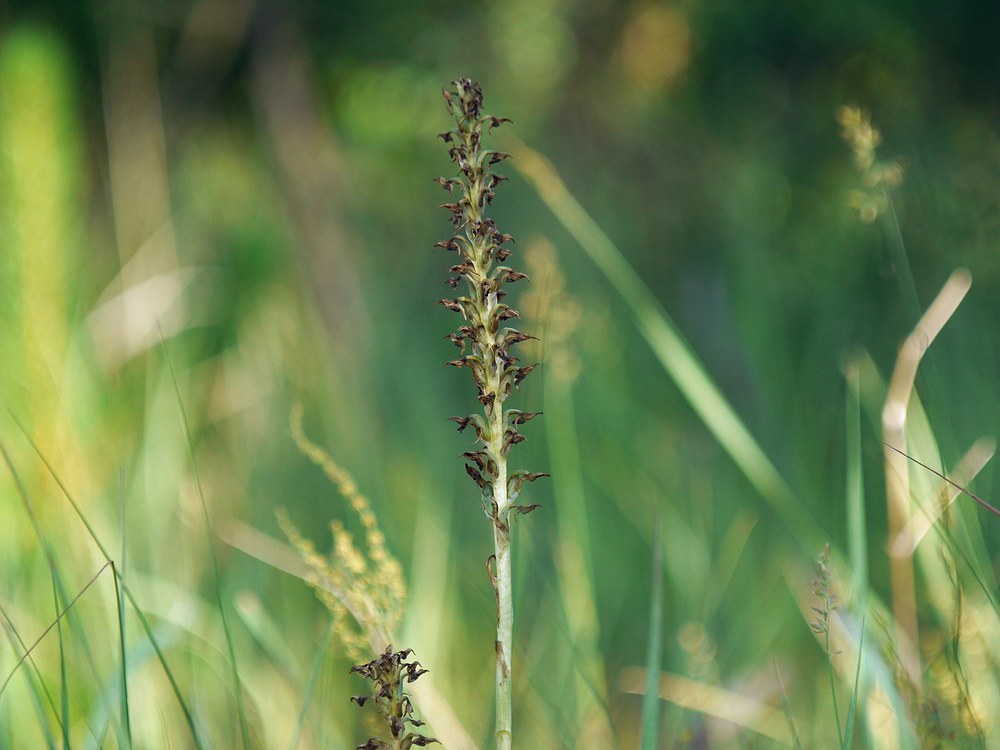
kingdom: Plantae
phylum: Tracheophyta
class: Liliopsida
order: Asparagales
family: Orchidaceae
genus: Anacamptis
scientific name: Anacamptis coriophora
